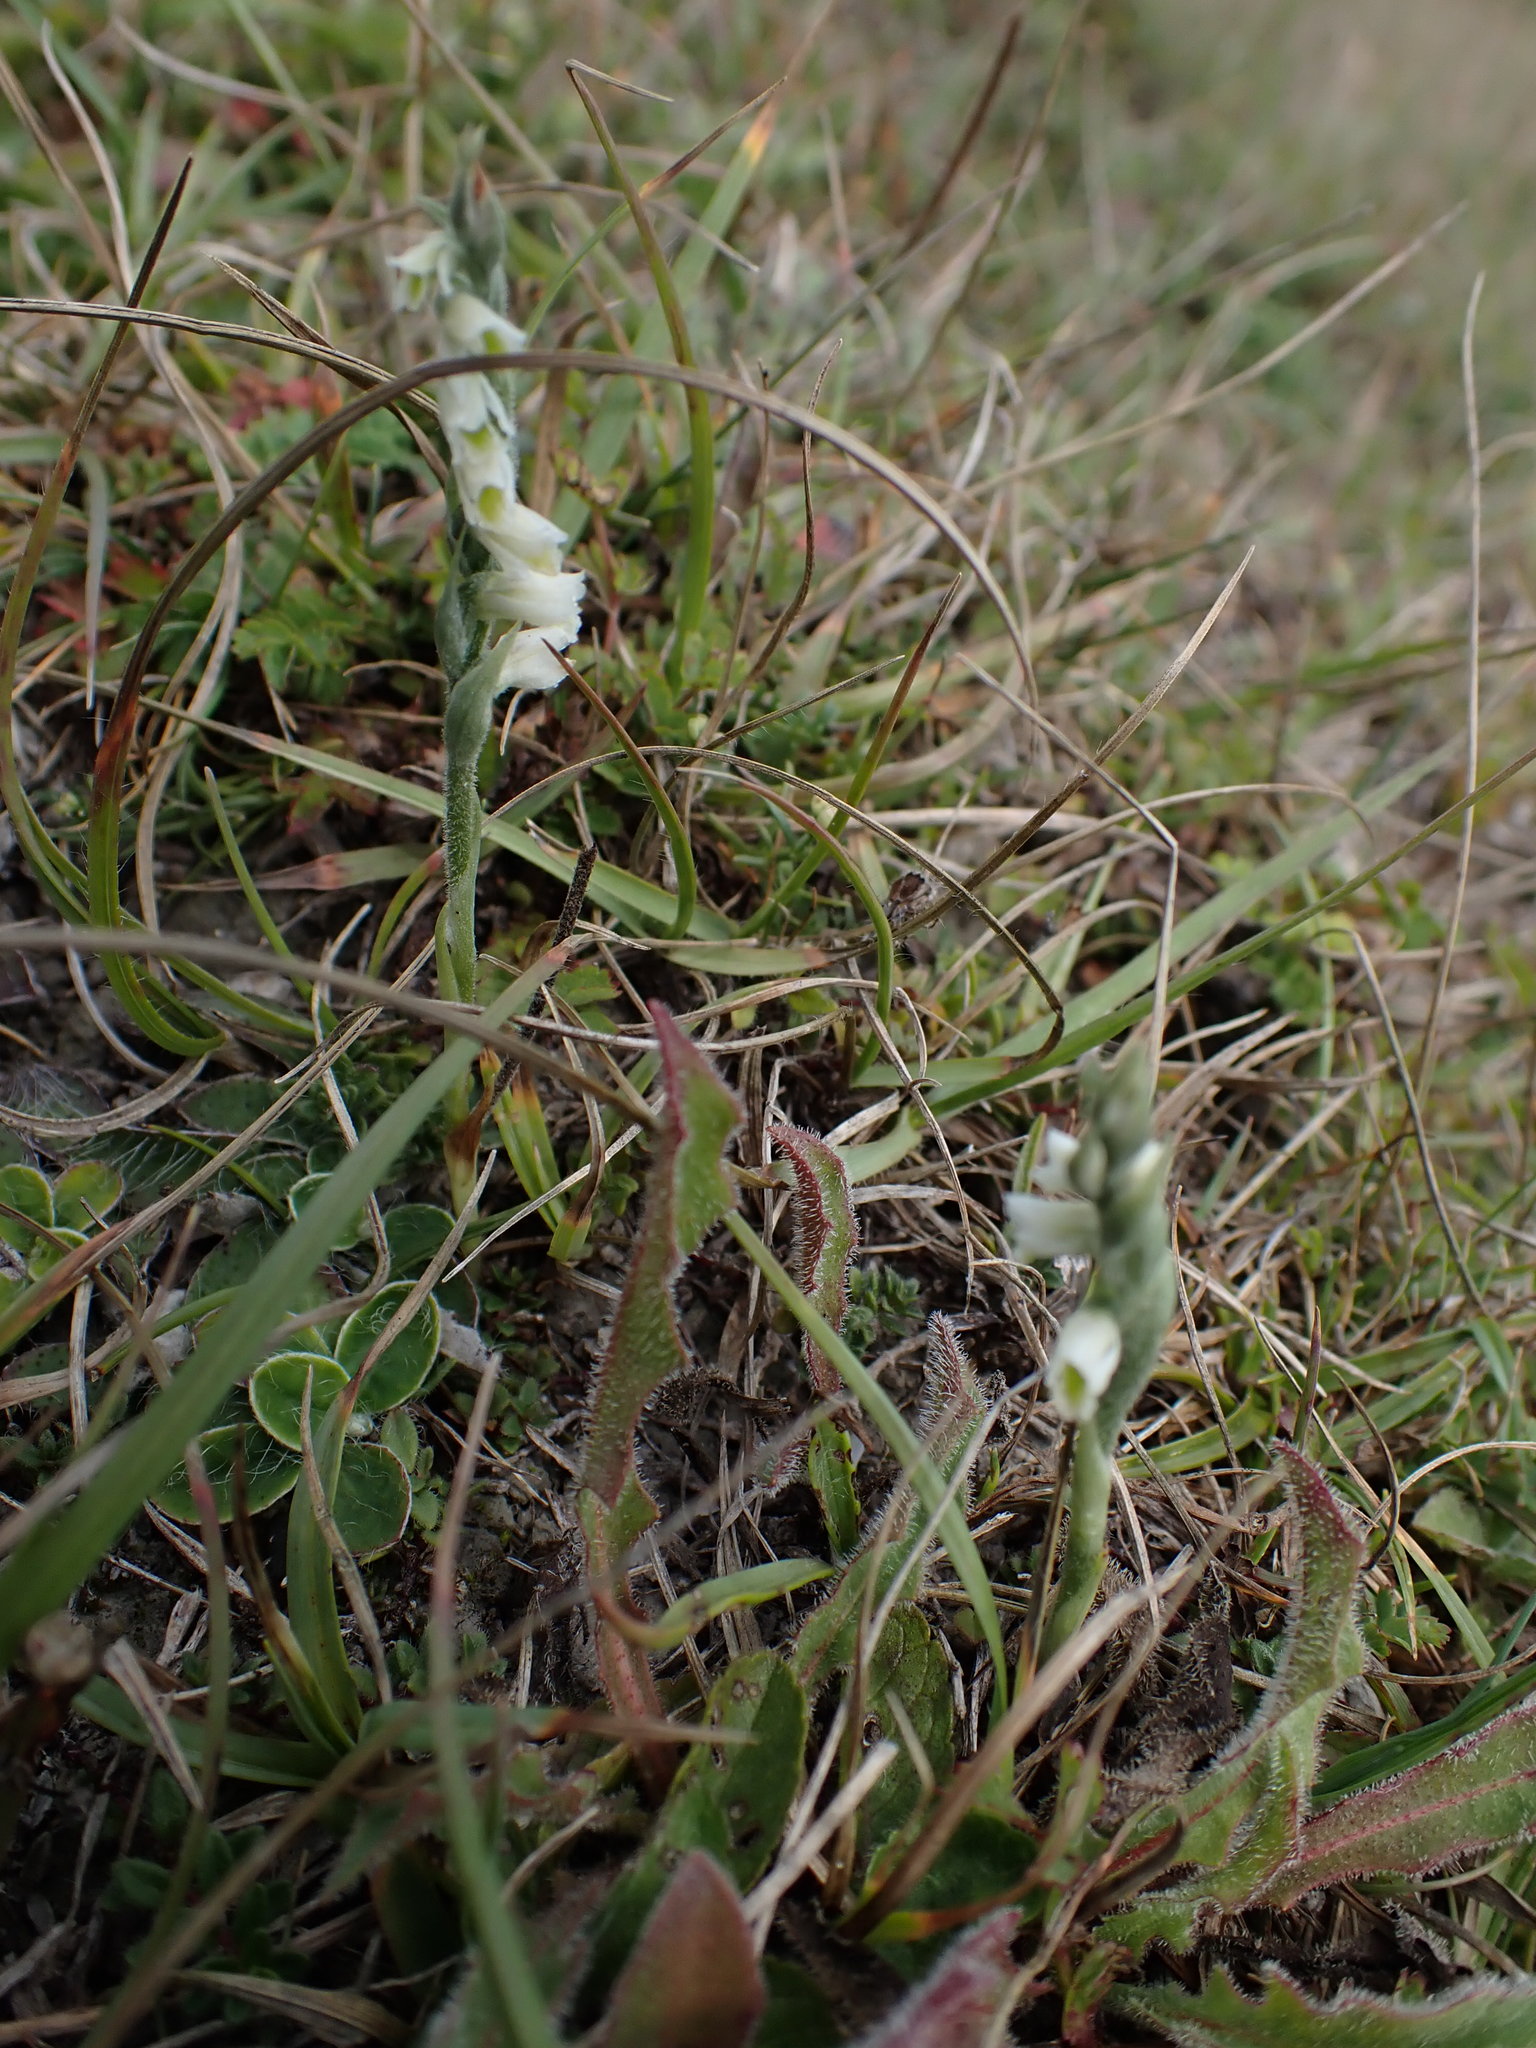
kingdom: Plantae
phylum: Tracheophyta
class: Liliopsida
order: Asparagales
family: Orchidaceae
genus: Spiranthes
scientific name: Spiranthes spiralis
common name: Autumn lady's-tresses
